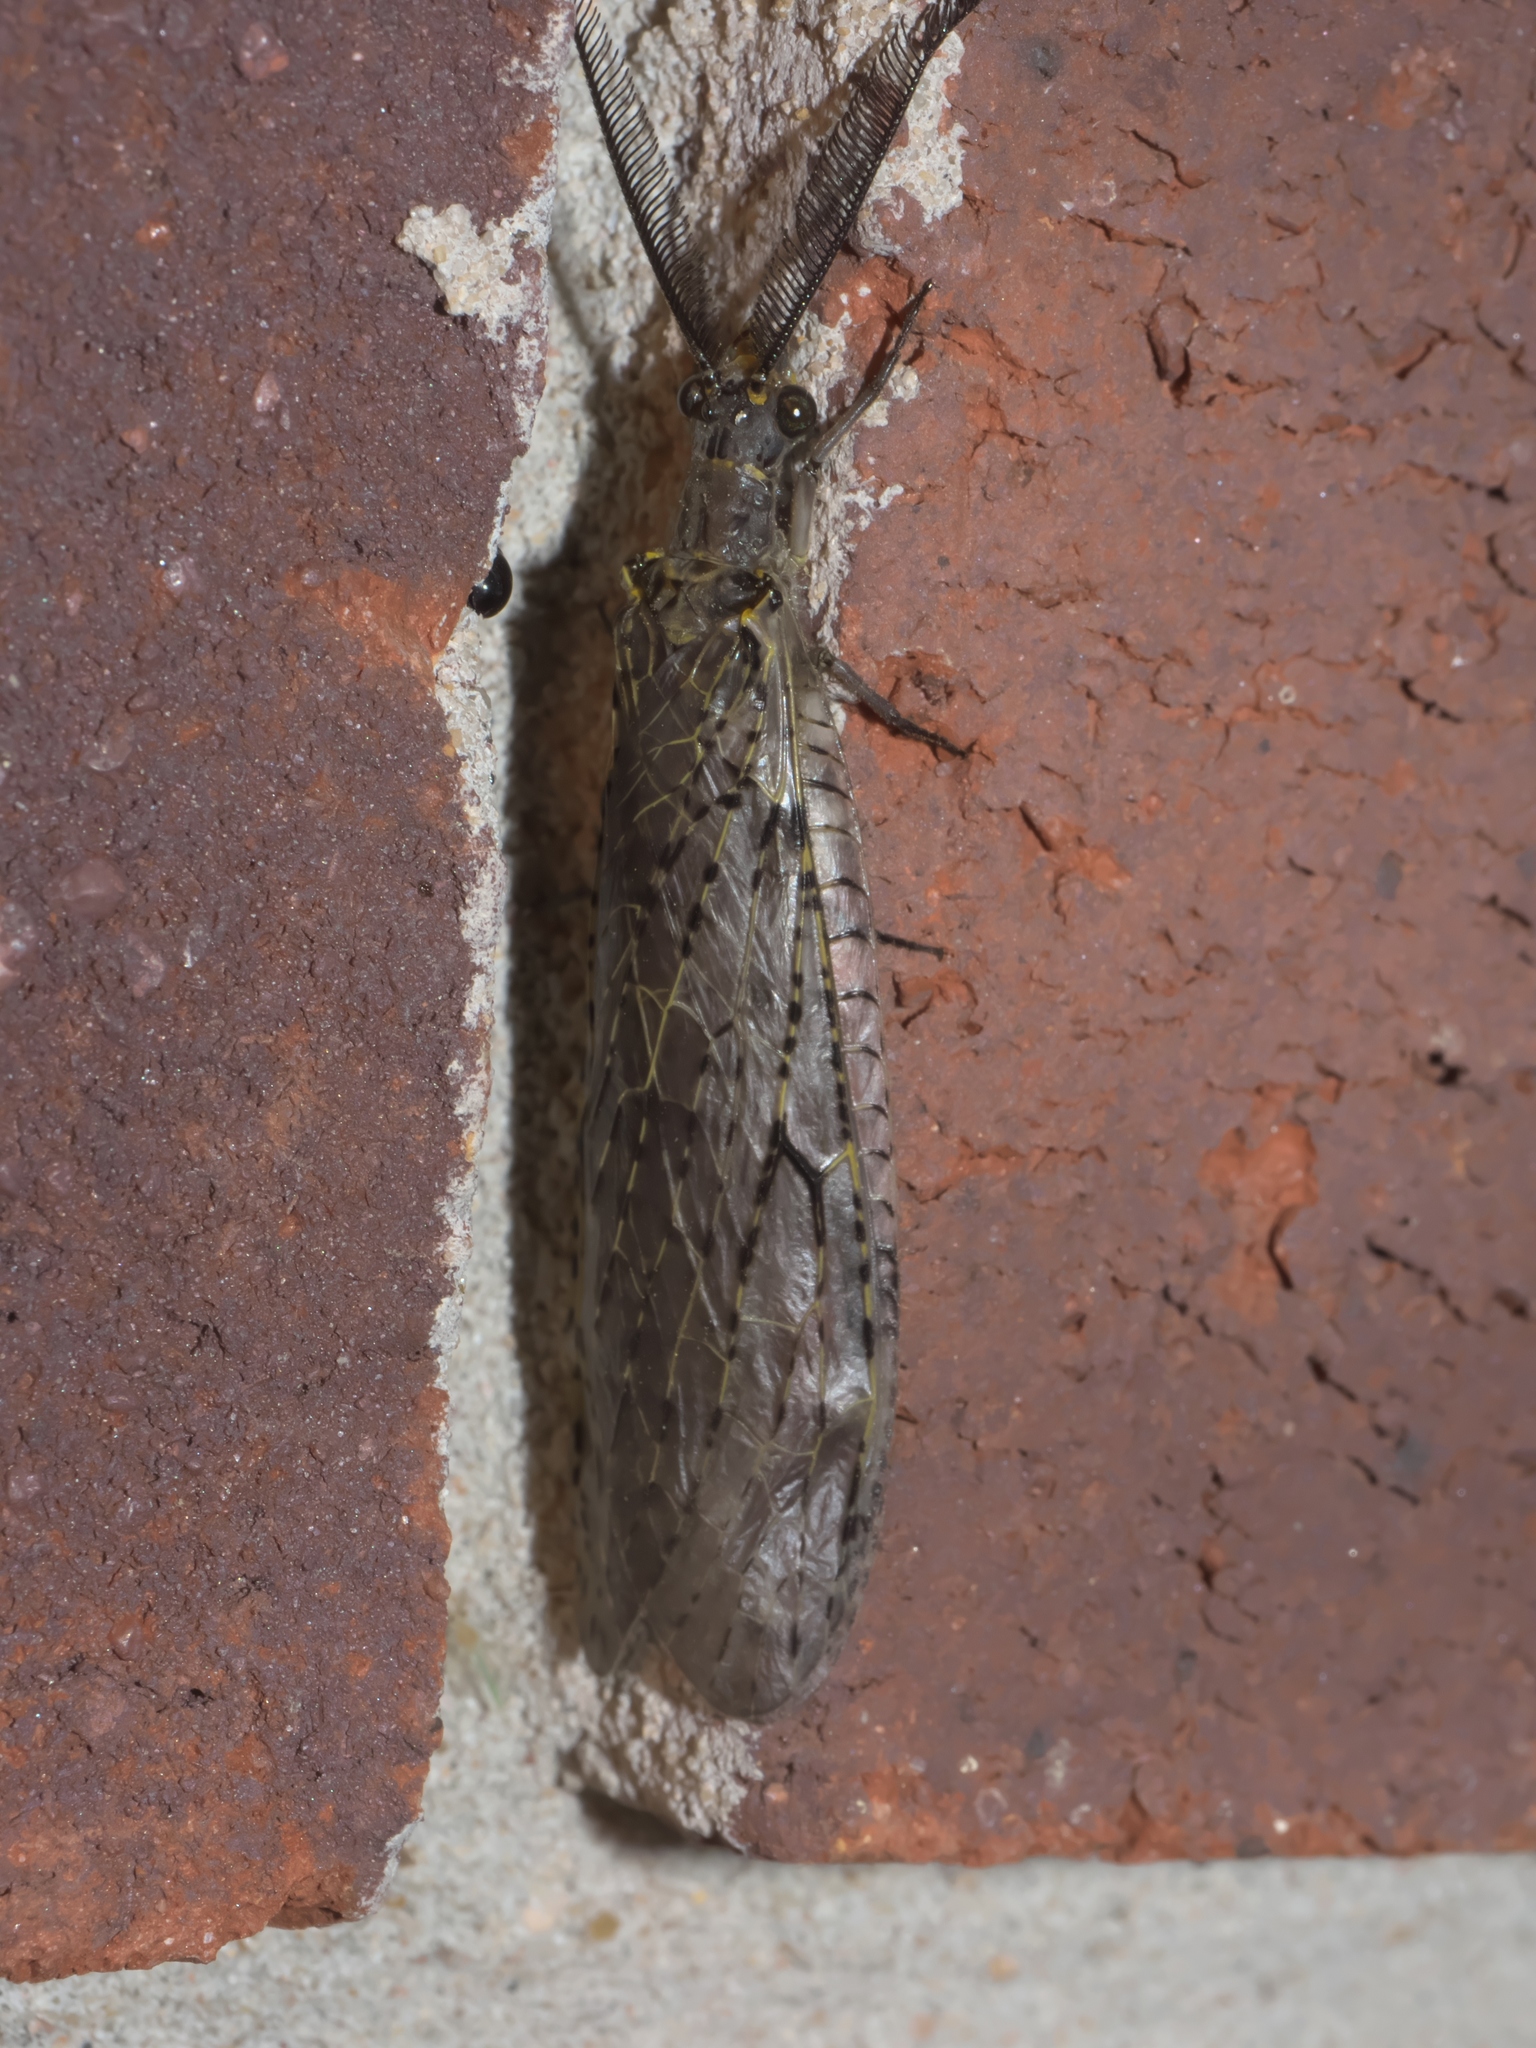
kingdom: Animalia
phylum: Arthropoda
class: Insecta
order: Megaloptera
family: Corydalidae
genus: Chauliodes
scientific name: Chauliodes rastricornis
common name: Spring fishfly
